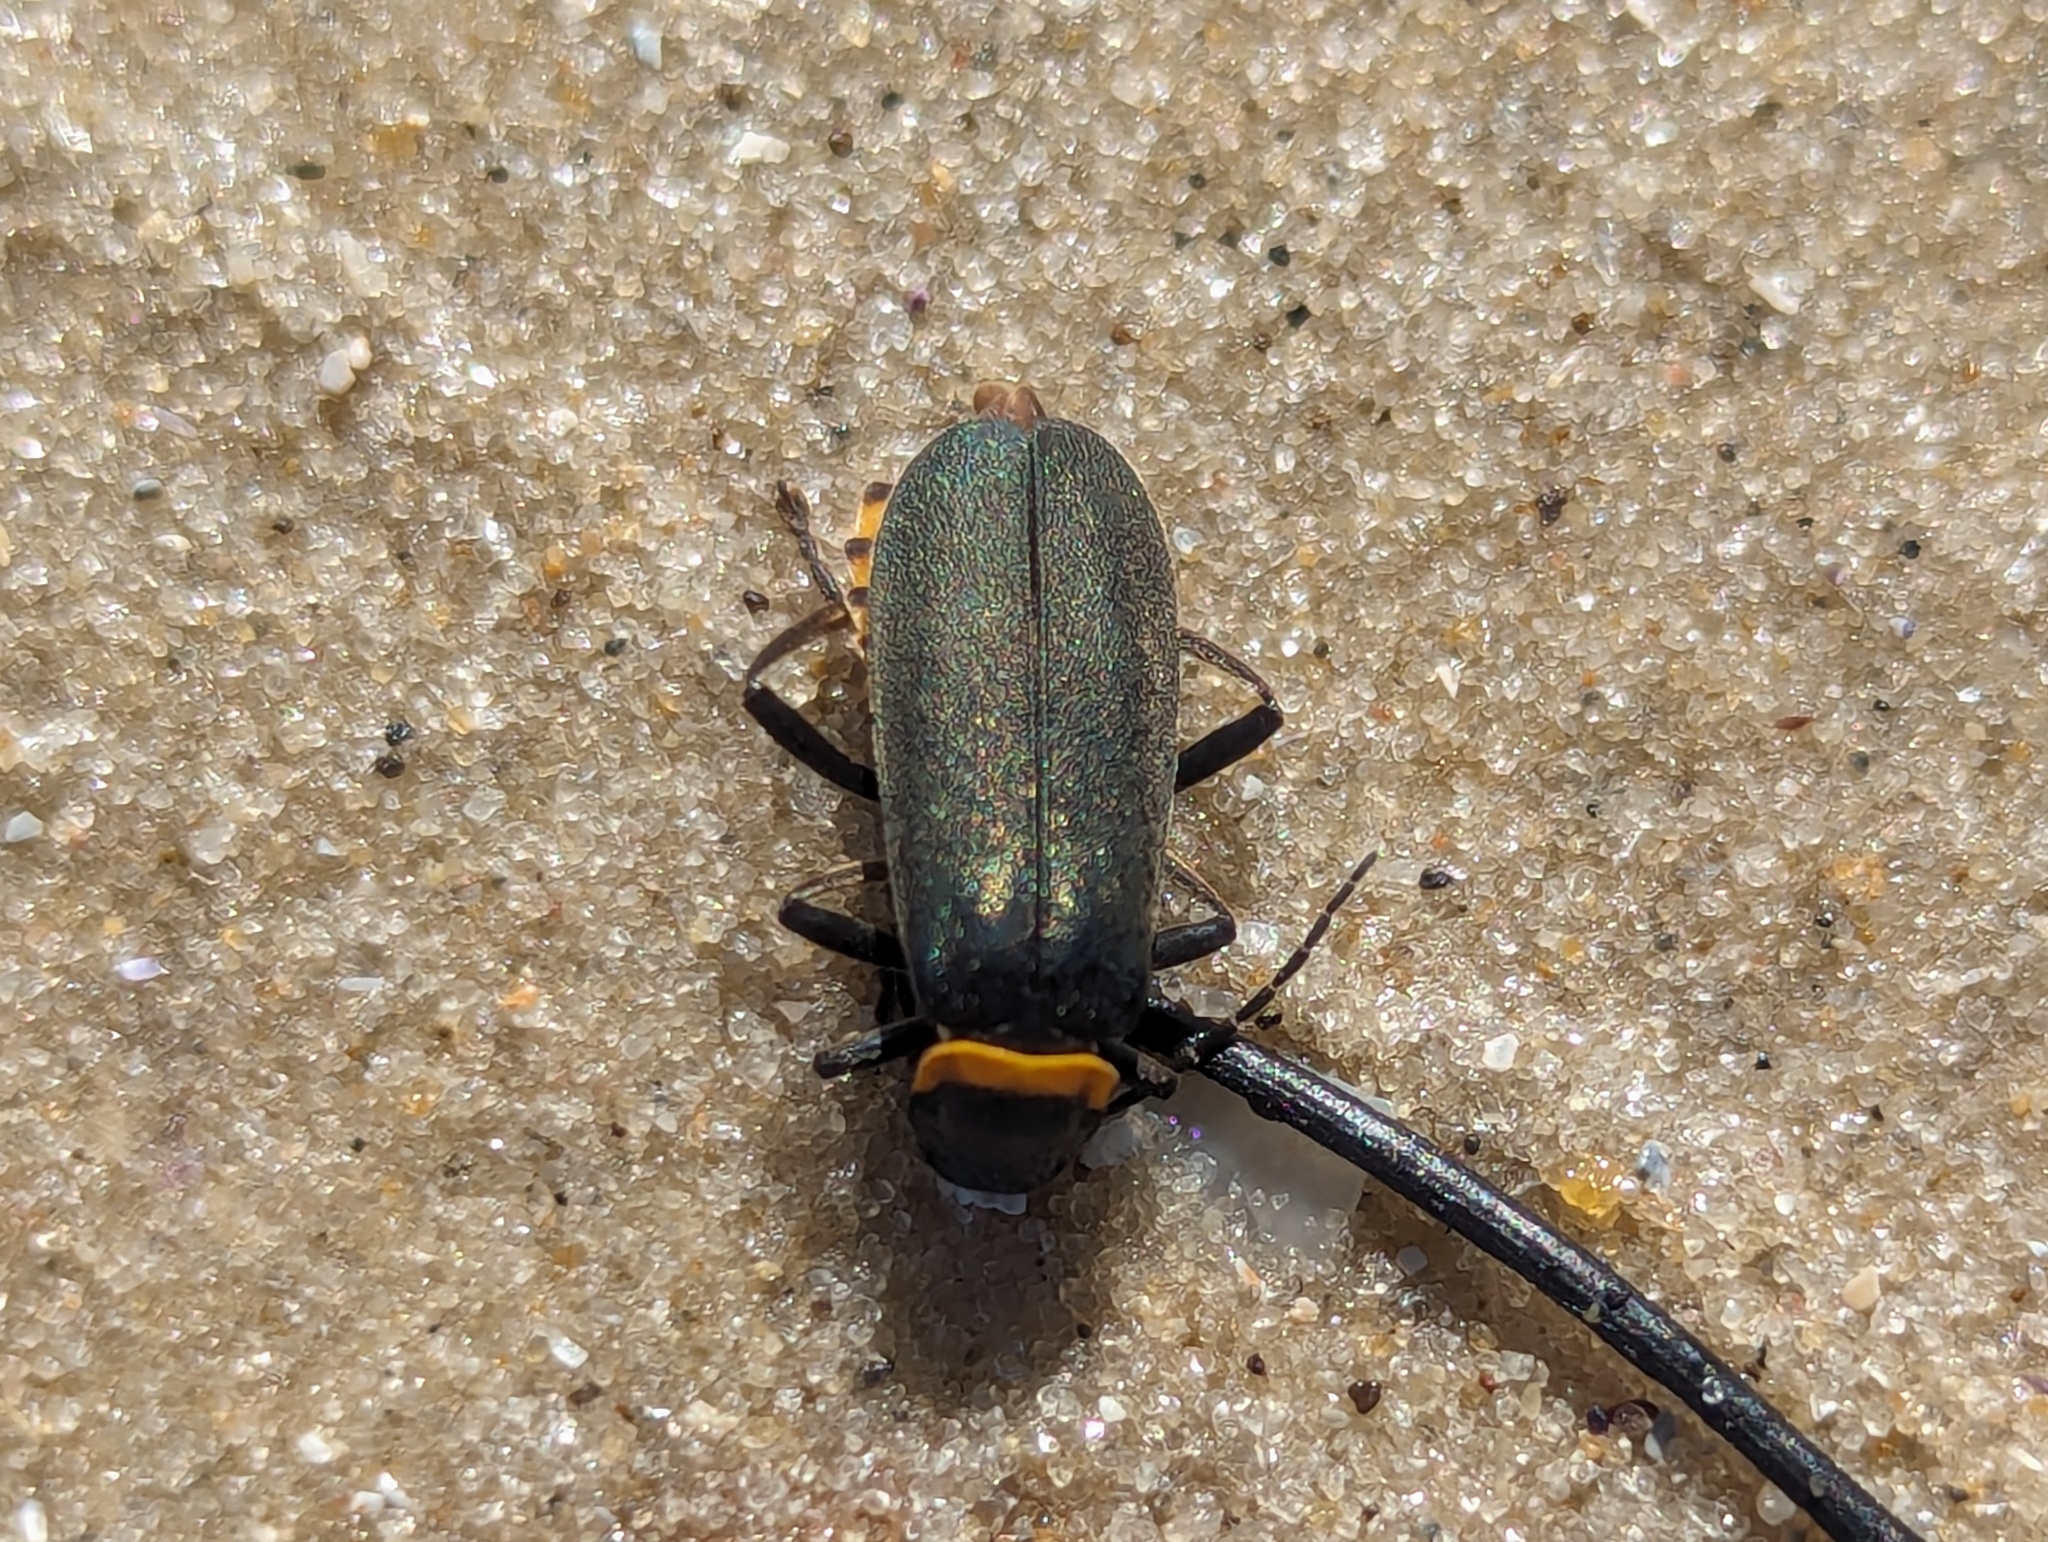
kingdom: Animalia
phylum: Arthropoda
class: Insecta
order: Coleoptera
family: Cantharidae
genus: Chauliognathus
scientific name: Chauliognathus
